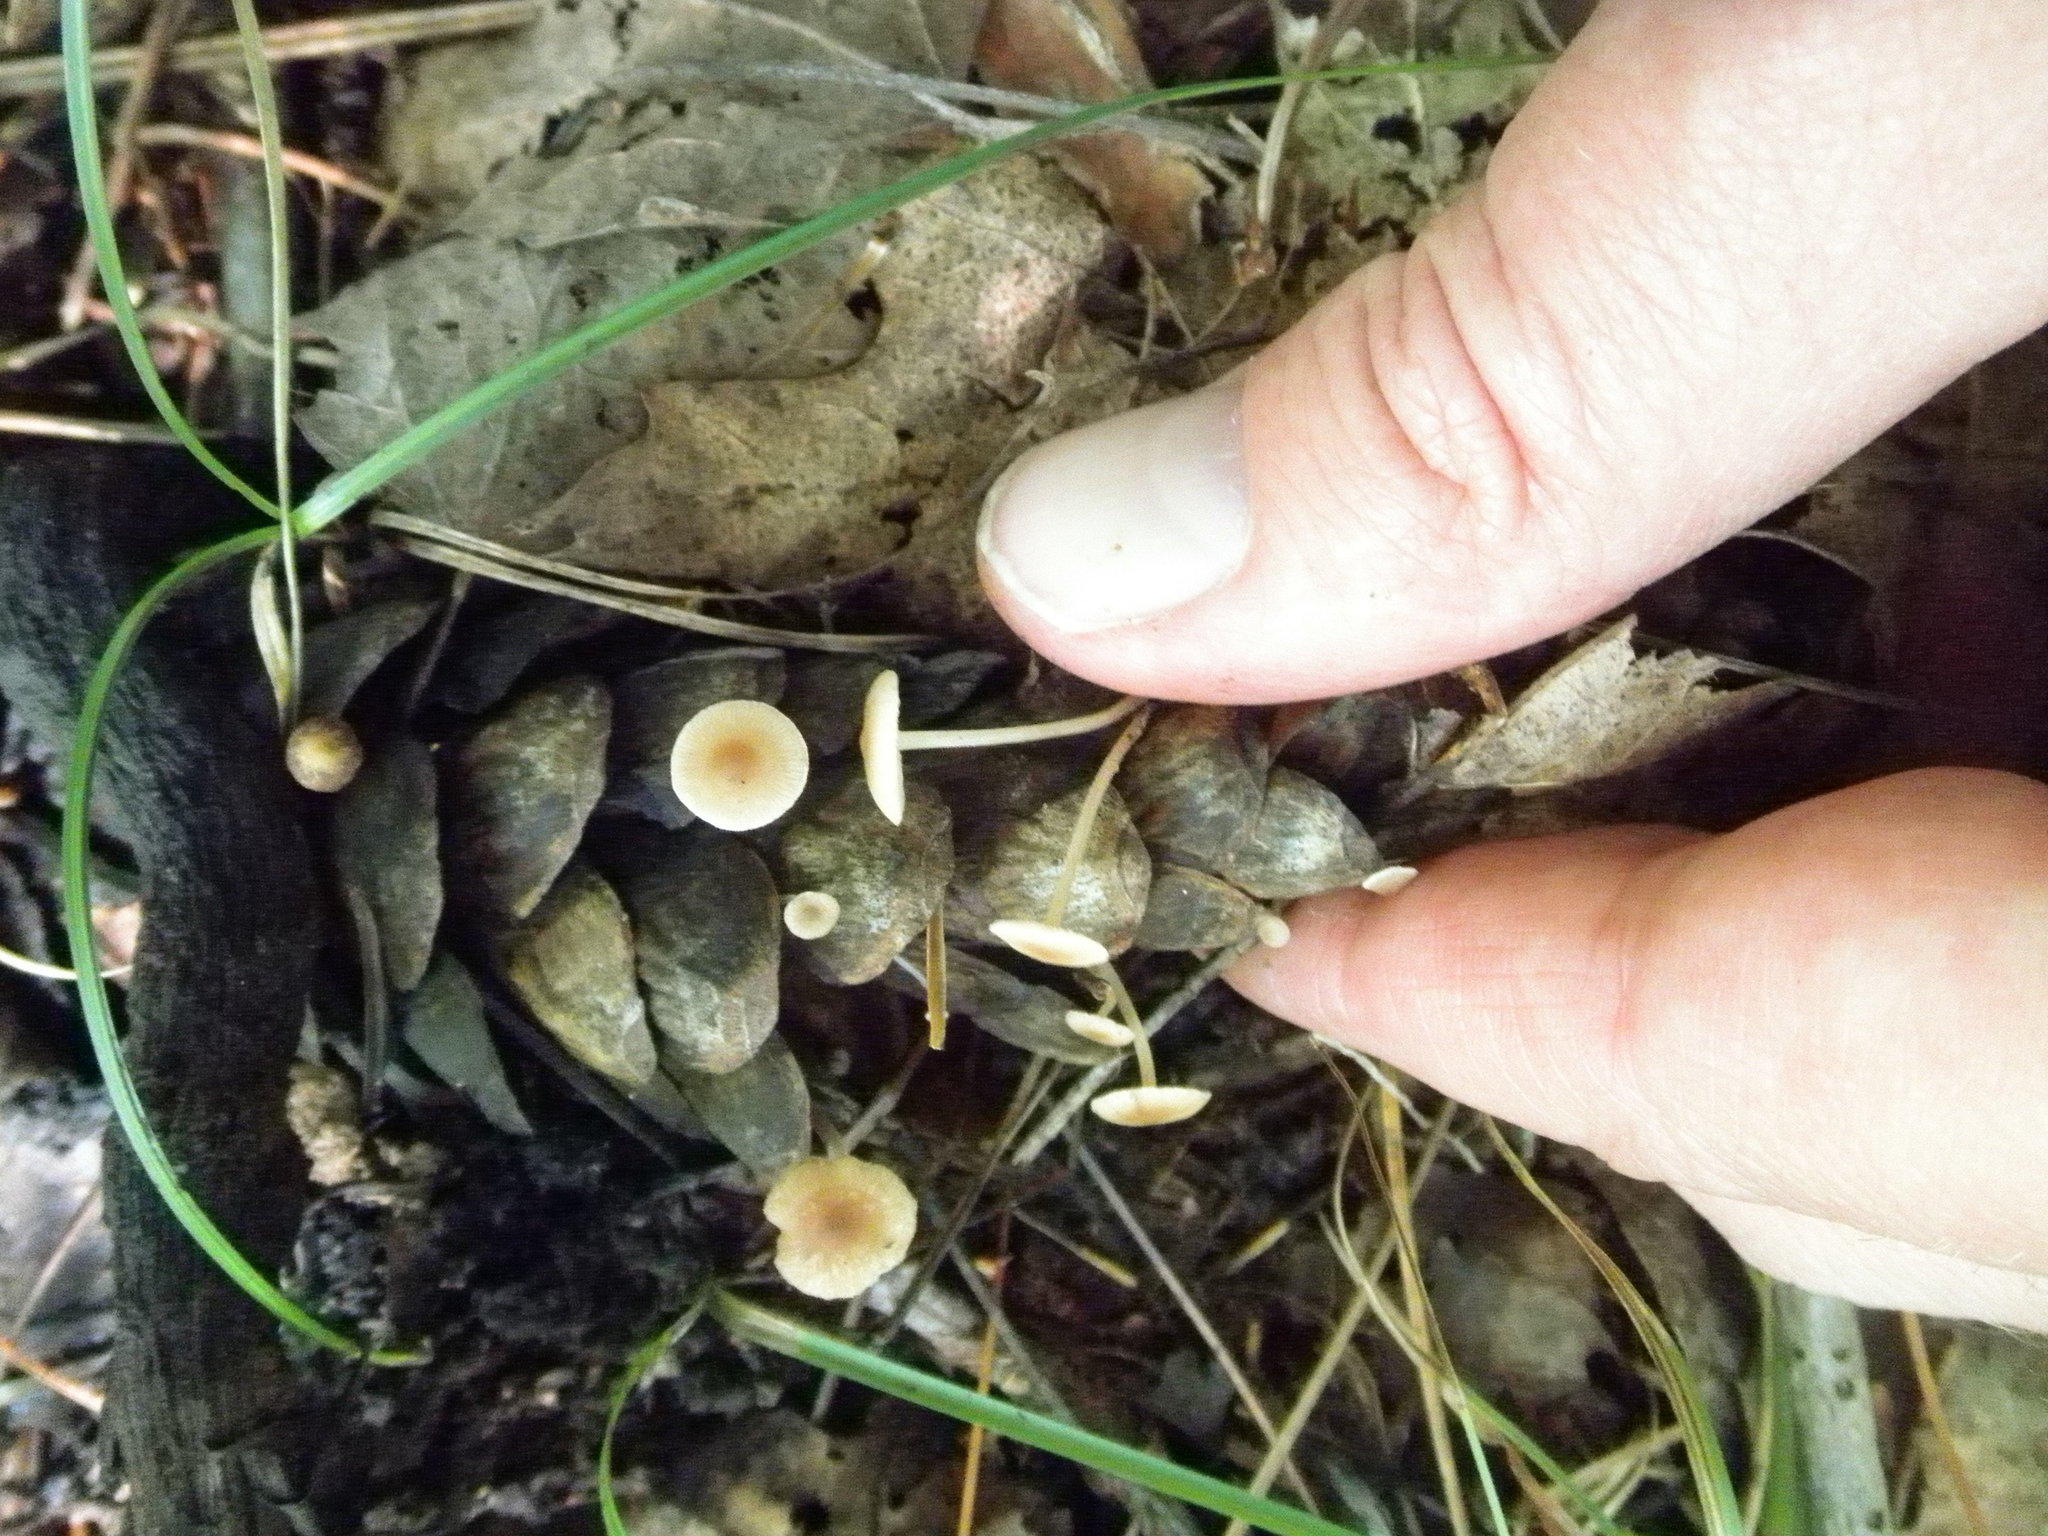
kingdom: Fungi
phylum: Basidiomycota
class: Agaricomycetes
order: Agaricales
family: Marasmiaceae
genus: Baeospora
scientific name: Baeospora myosura
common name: Conifercone cap
